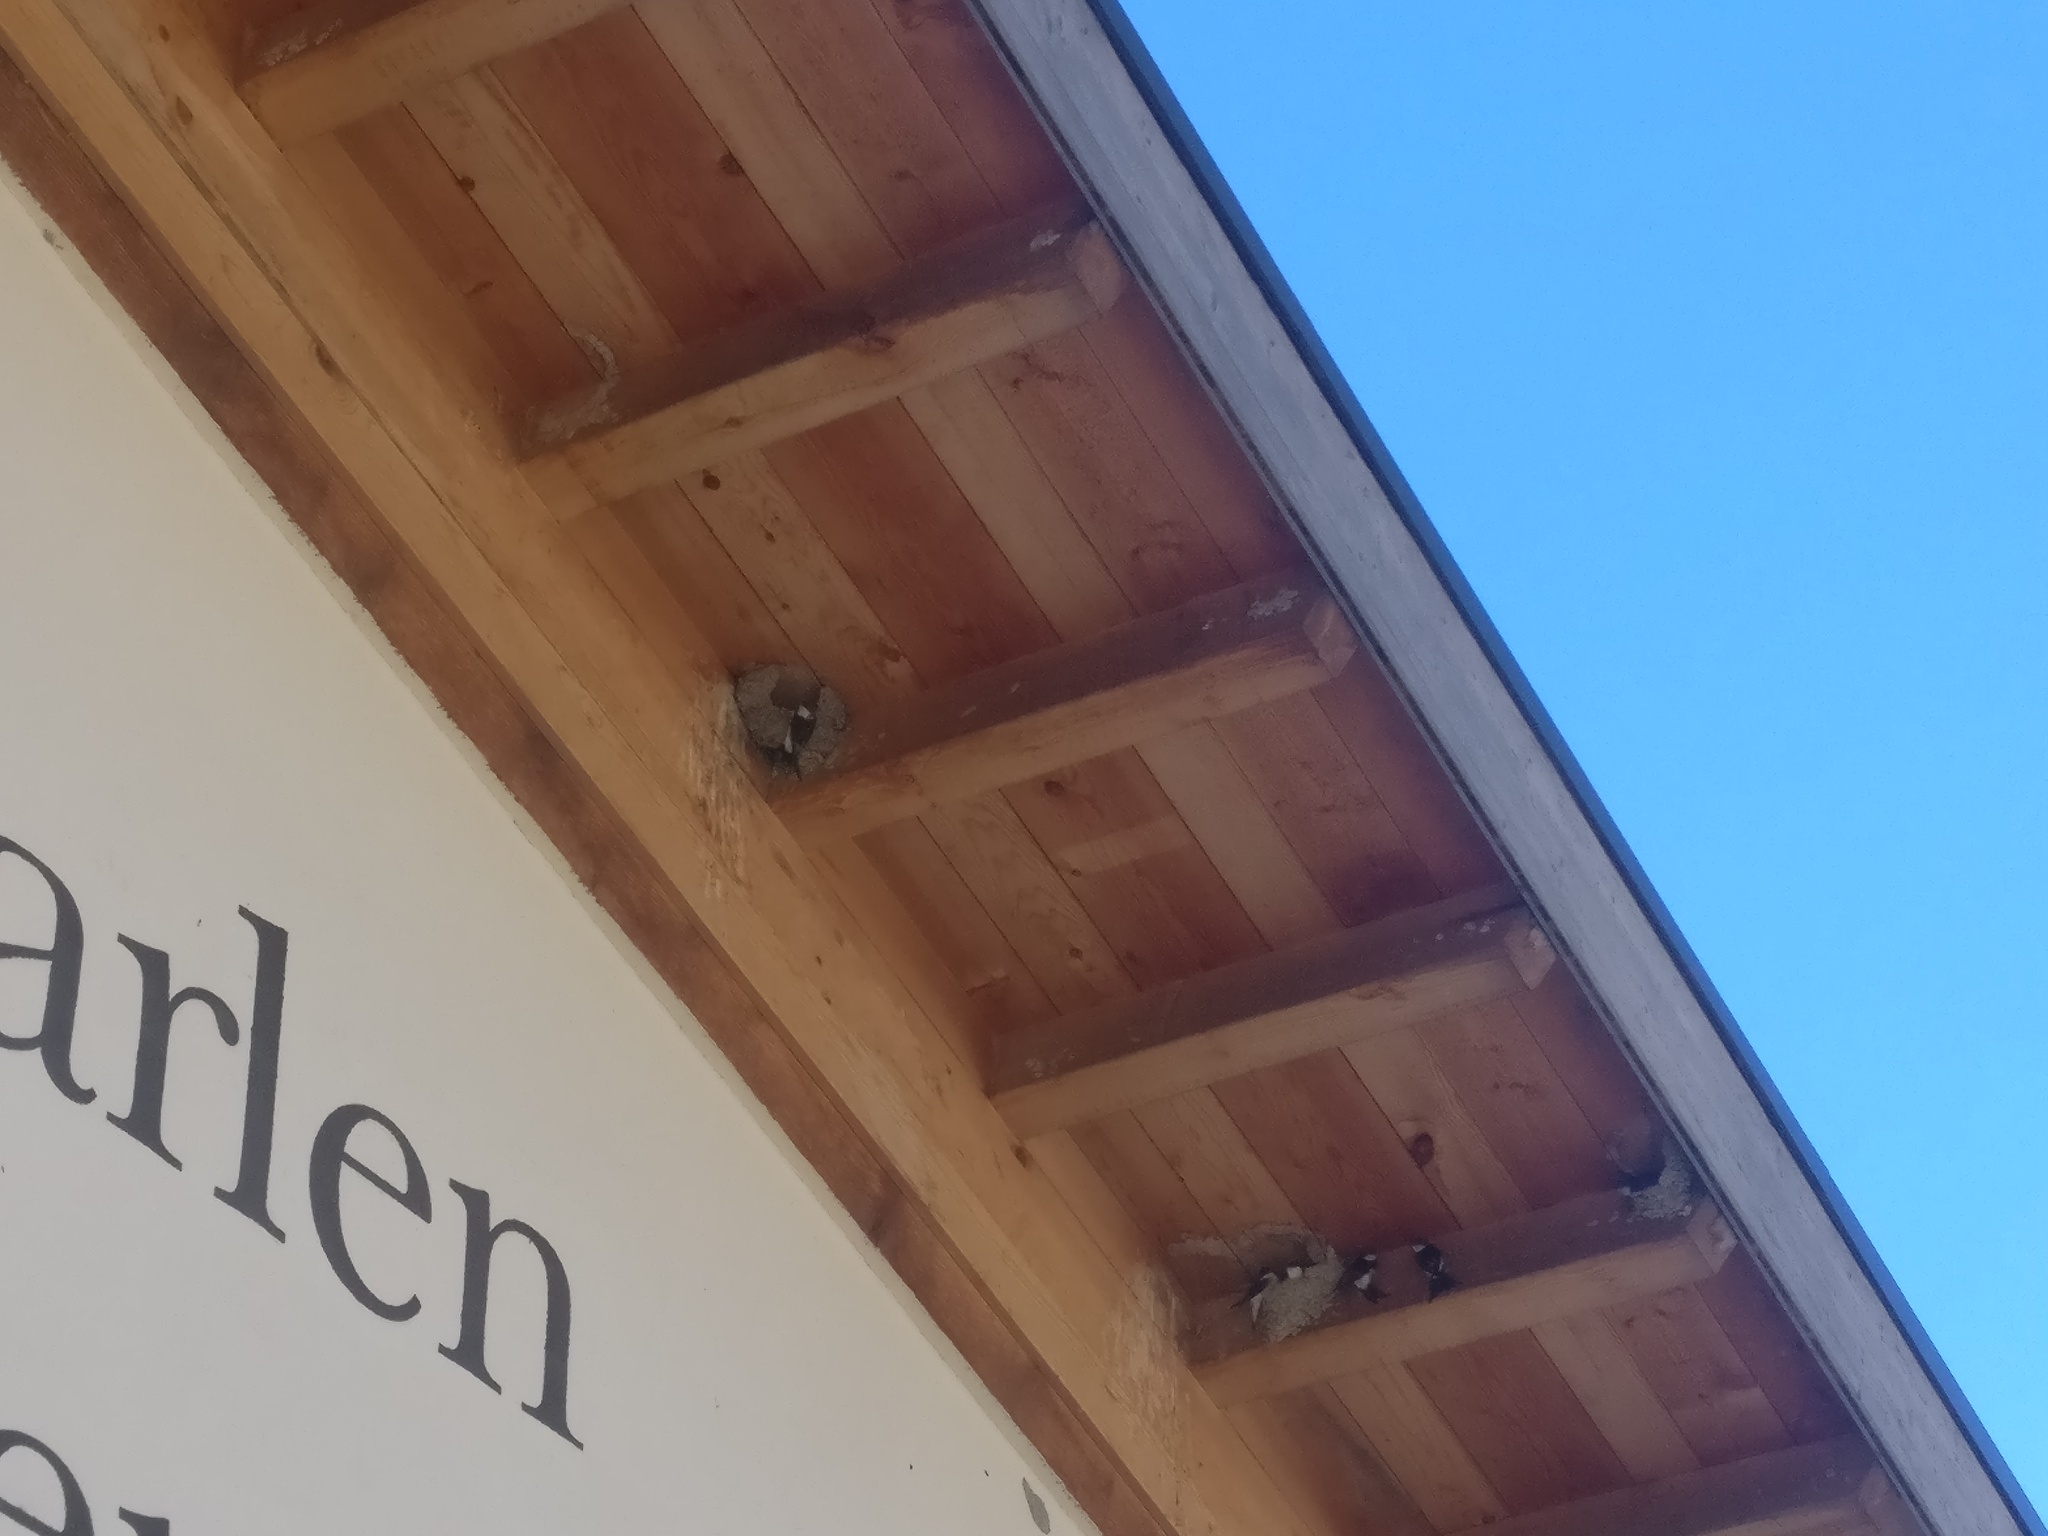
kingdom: Animalia
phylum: Chordata
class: Aves
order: Passeriformes
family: Hirundinidae
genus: Delichon
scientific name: Delichon urbicum
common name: Common house martin
